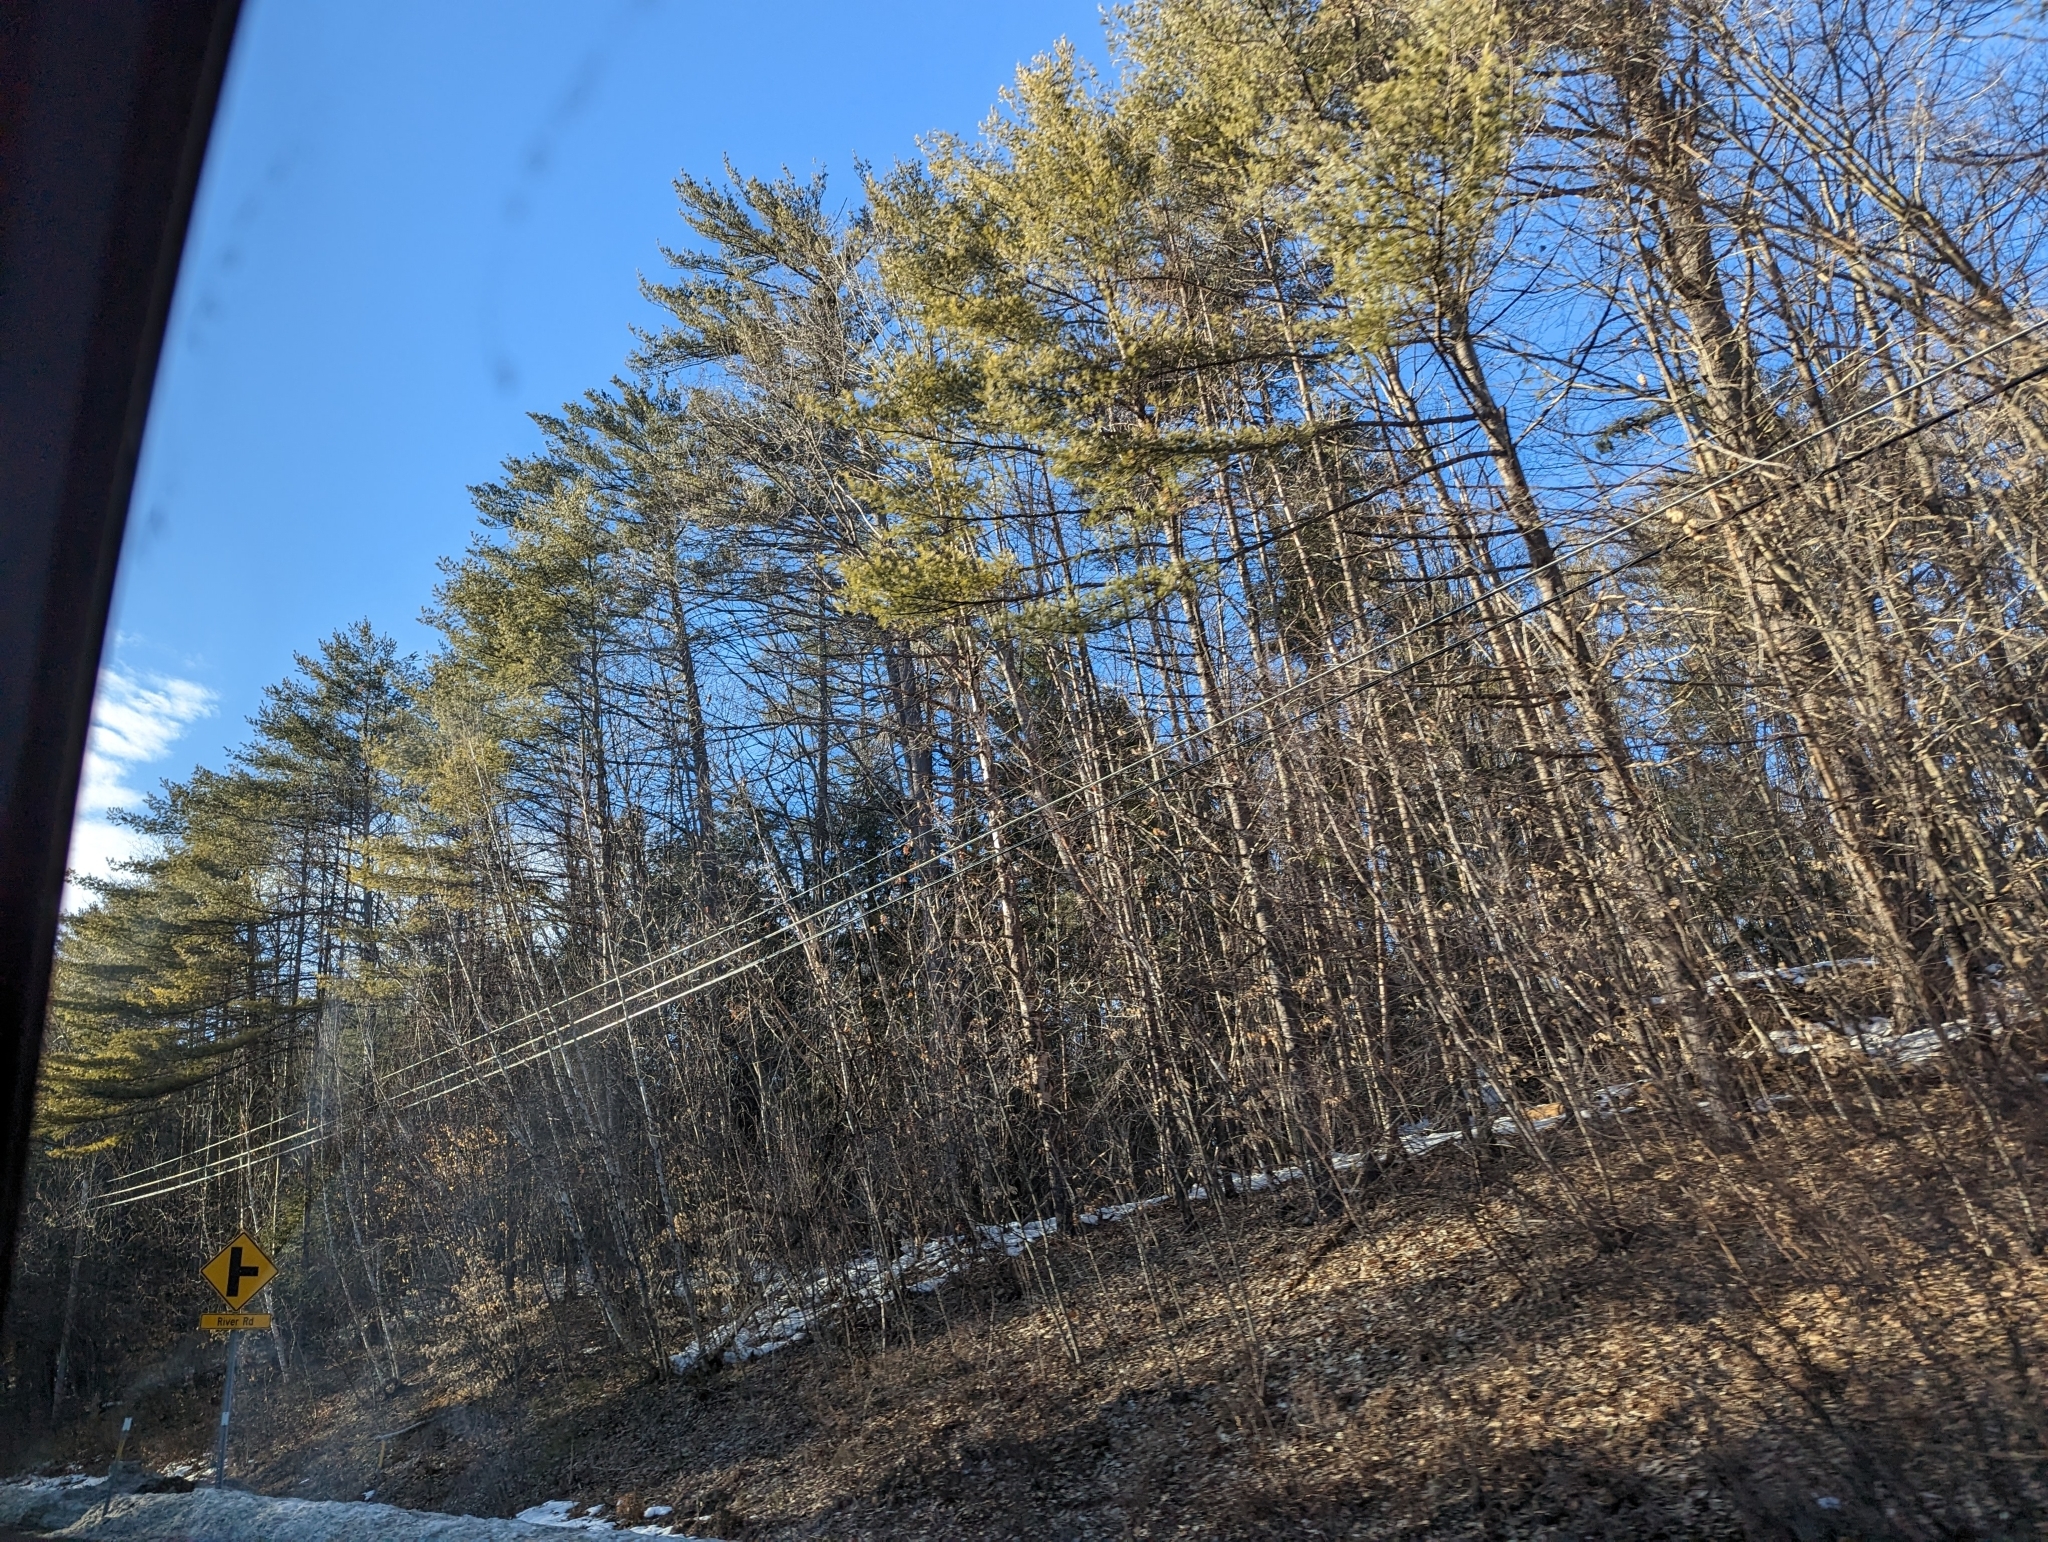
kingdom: Plantae
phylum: Tracheophyta
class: Pinopsida
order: Pinales
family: Pinaceae
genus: Pinus
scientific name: Pinus strobus
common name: Weymouth pine
